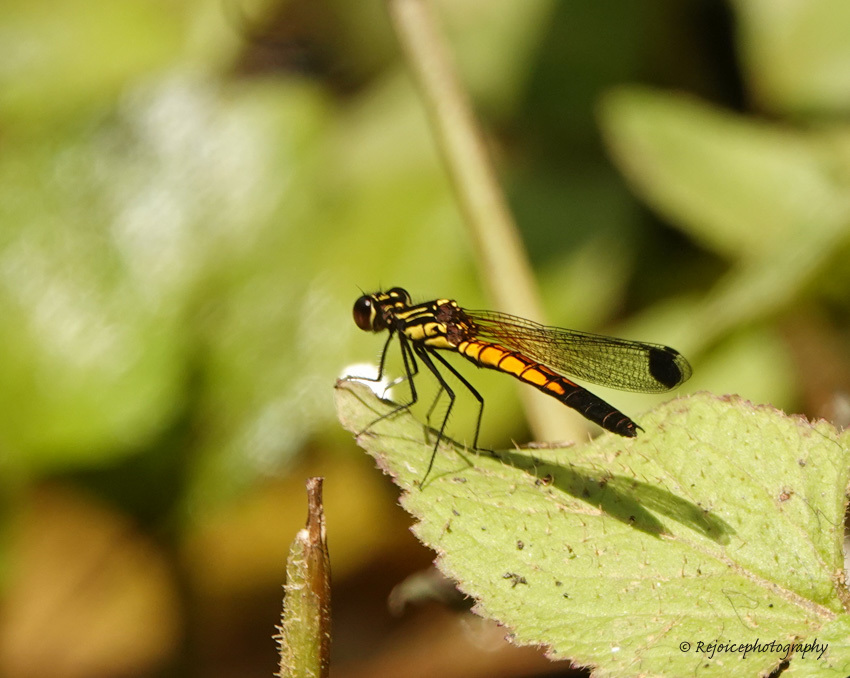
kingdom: Animalia
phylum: Arthropoda
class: Insecta
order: Odonata
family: Chlorocyphidae
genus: Libellago
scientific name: Libellago lineata
